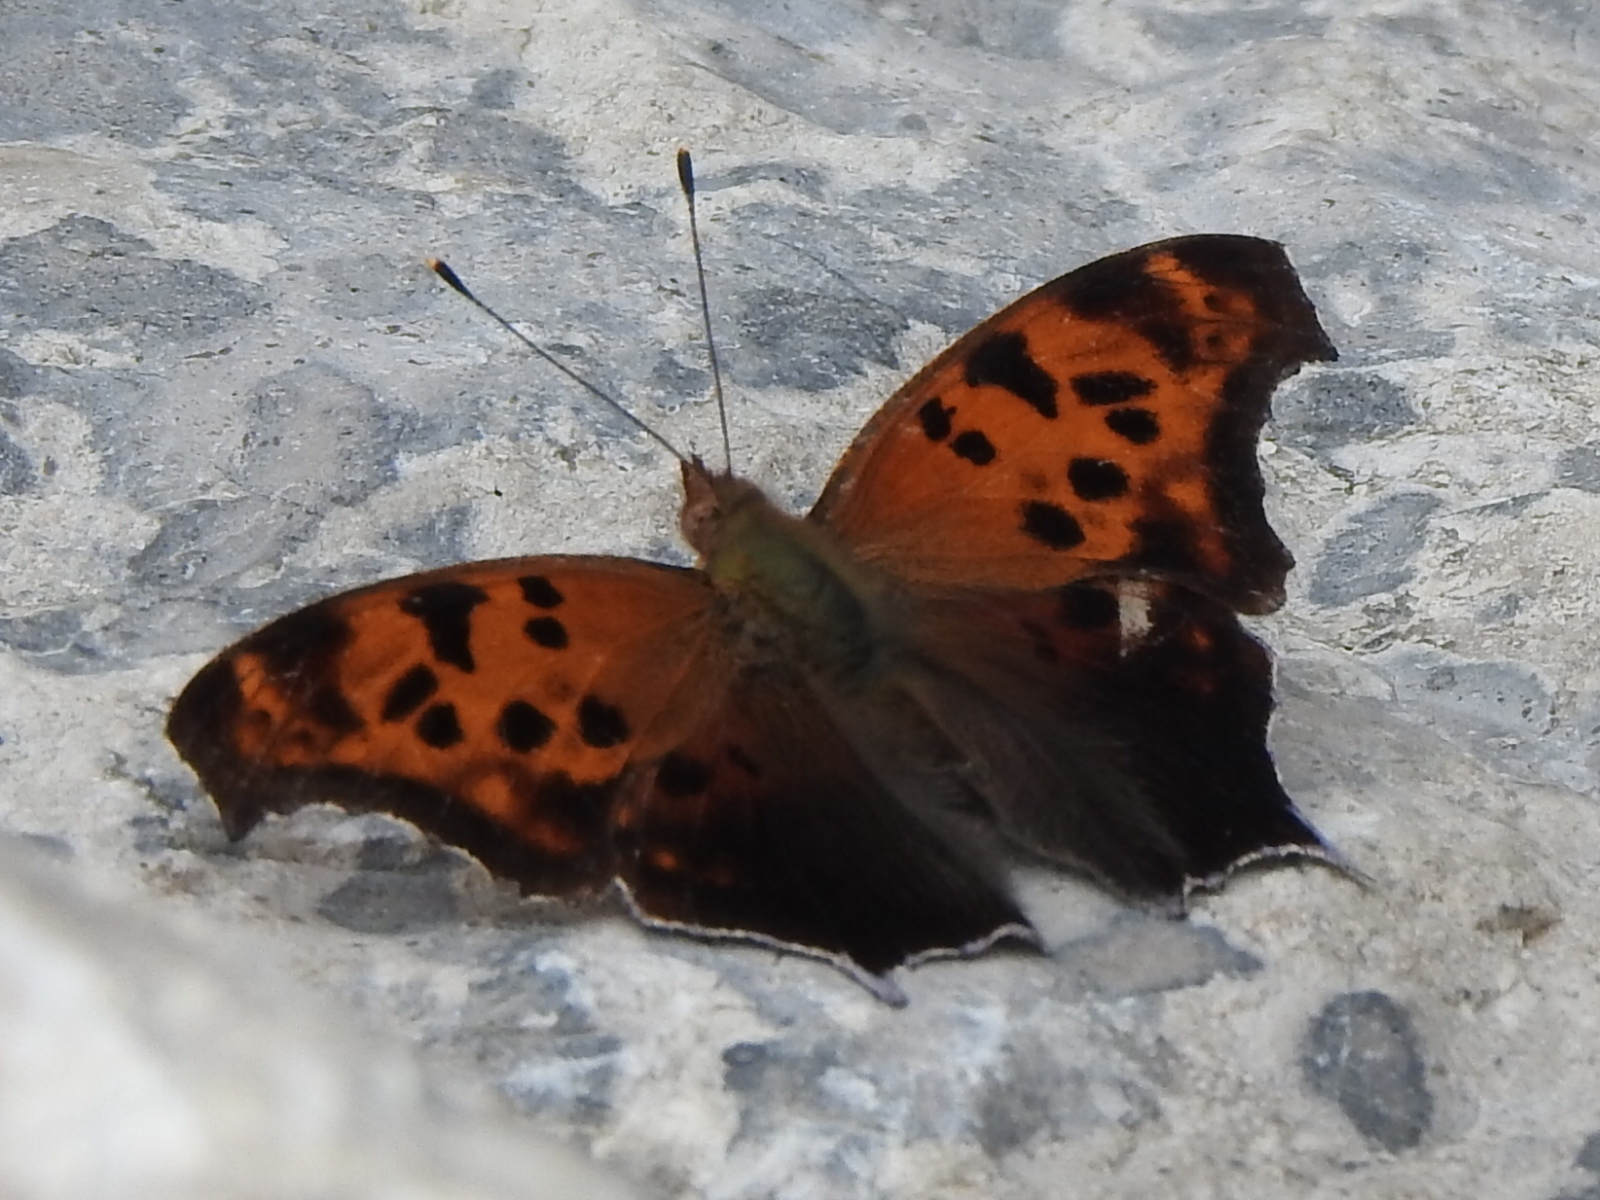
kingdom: Animalia
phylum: Arthropoda
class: Insecta
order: Lepidoptera
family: Nymphalidae
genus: Polygonia
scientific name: Polygonia interrogationis
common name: Question mark
